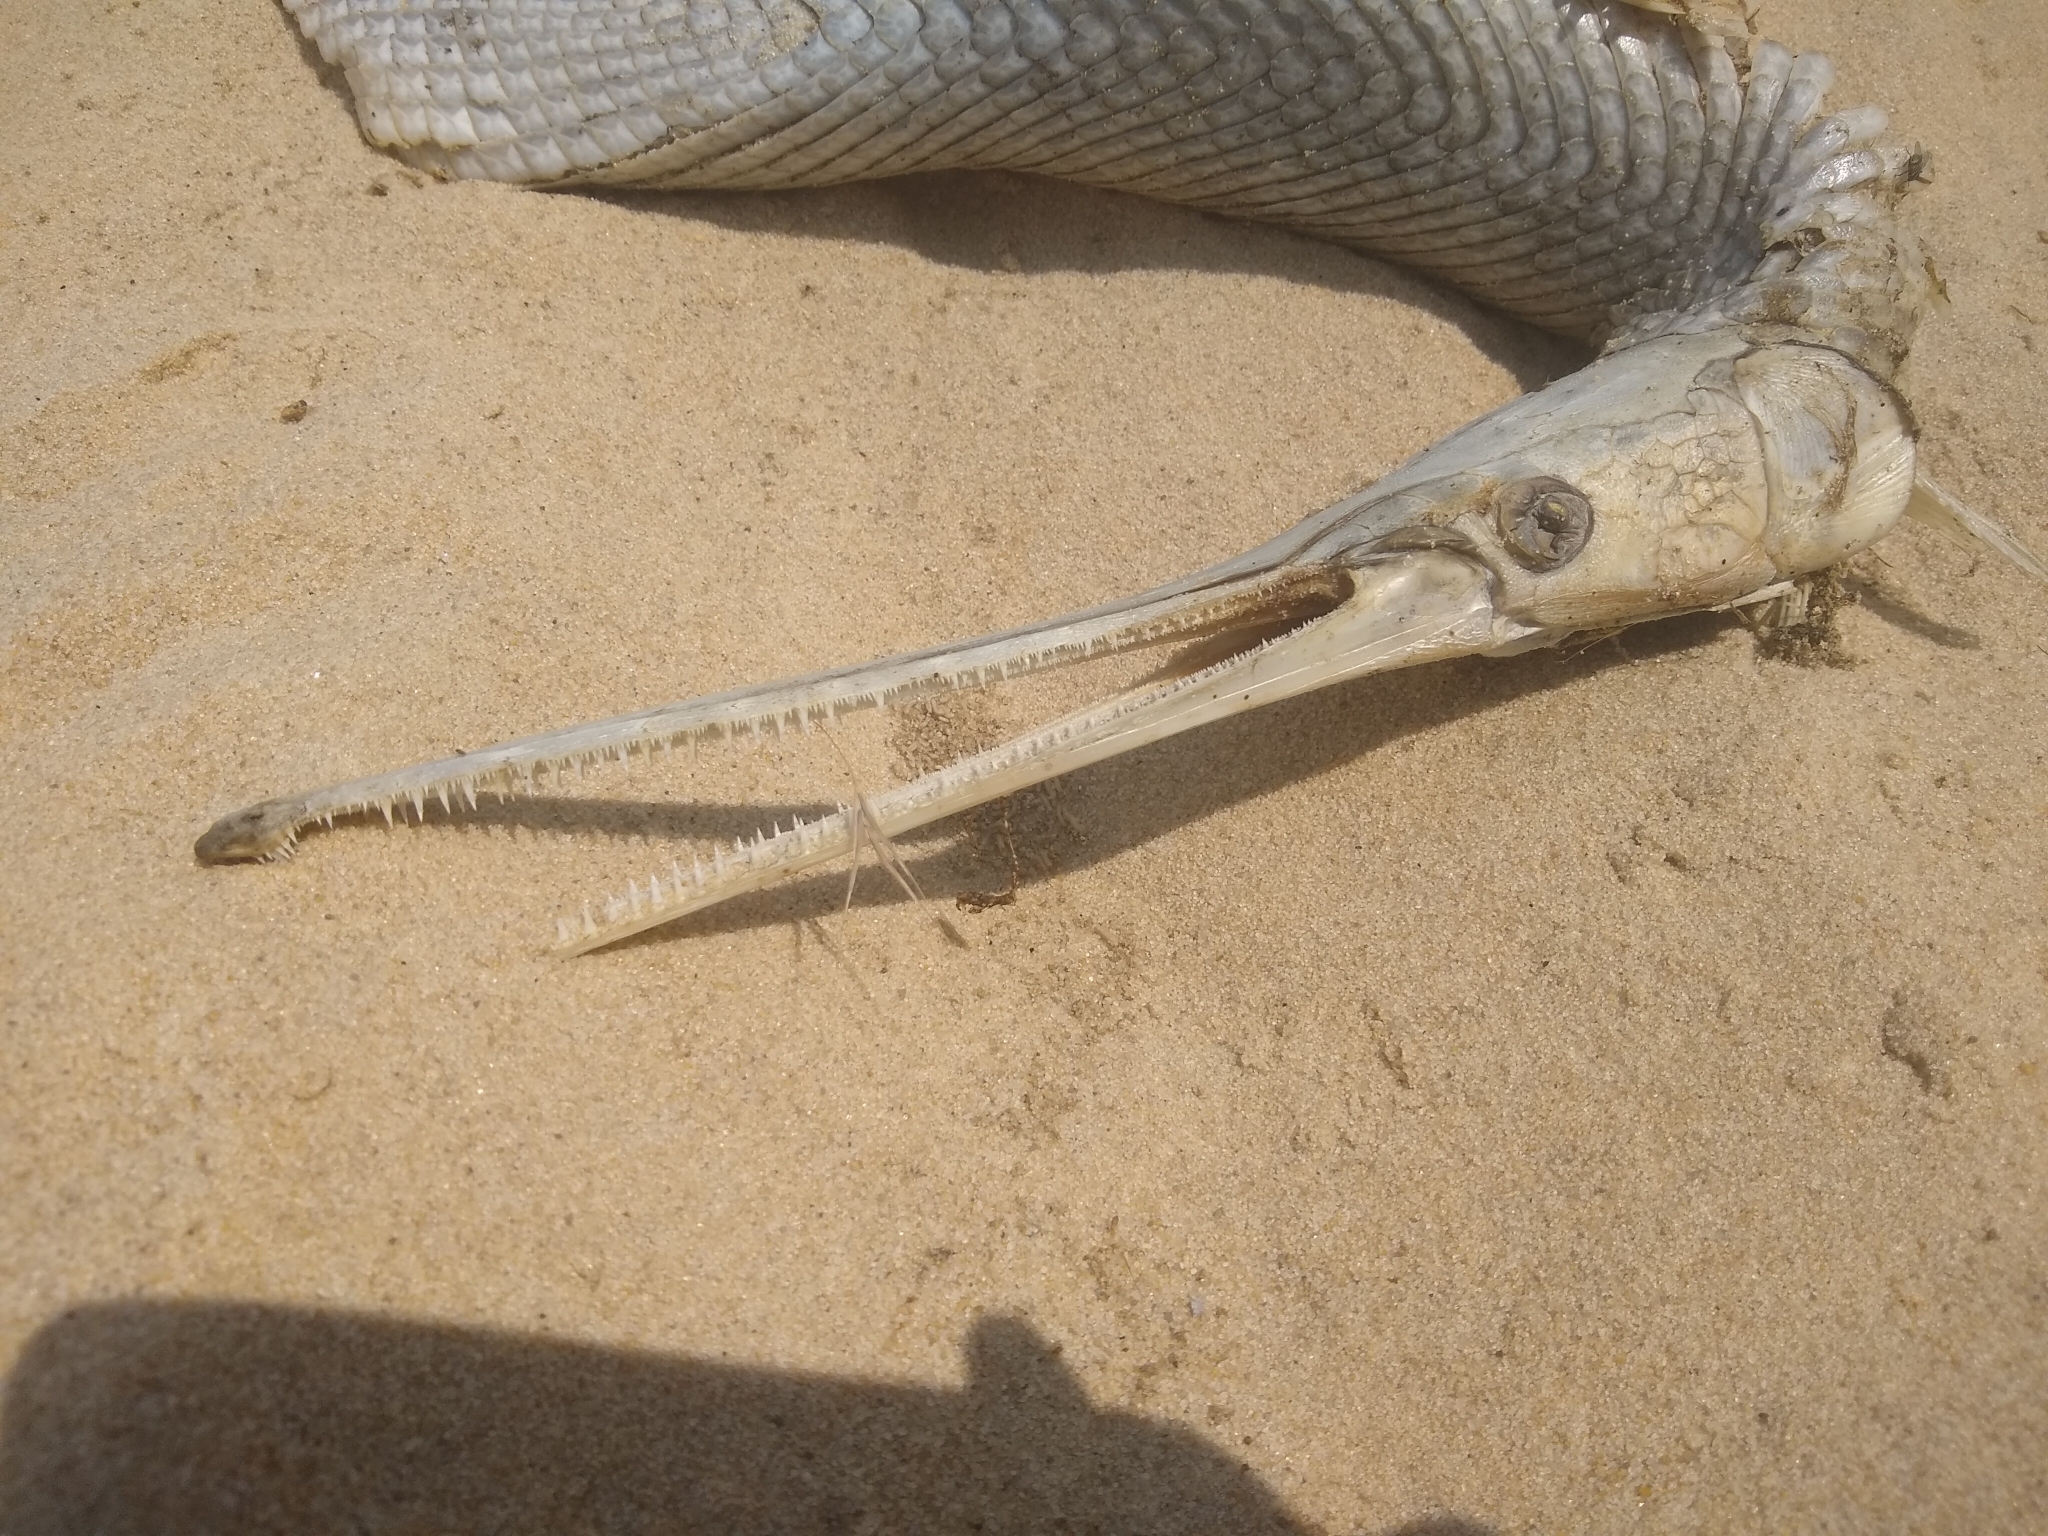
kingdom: Animalia
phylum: Chordata
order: Lepisosteiformes
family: Lepisosteidae
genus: Lepisosteus
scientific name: Lepisosteus osseus
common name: Longnose gar
